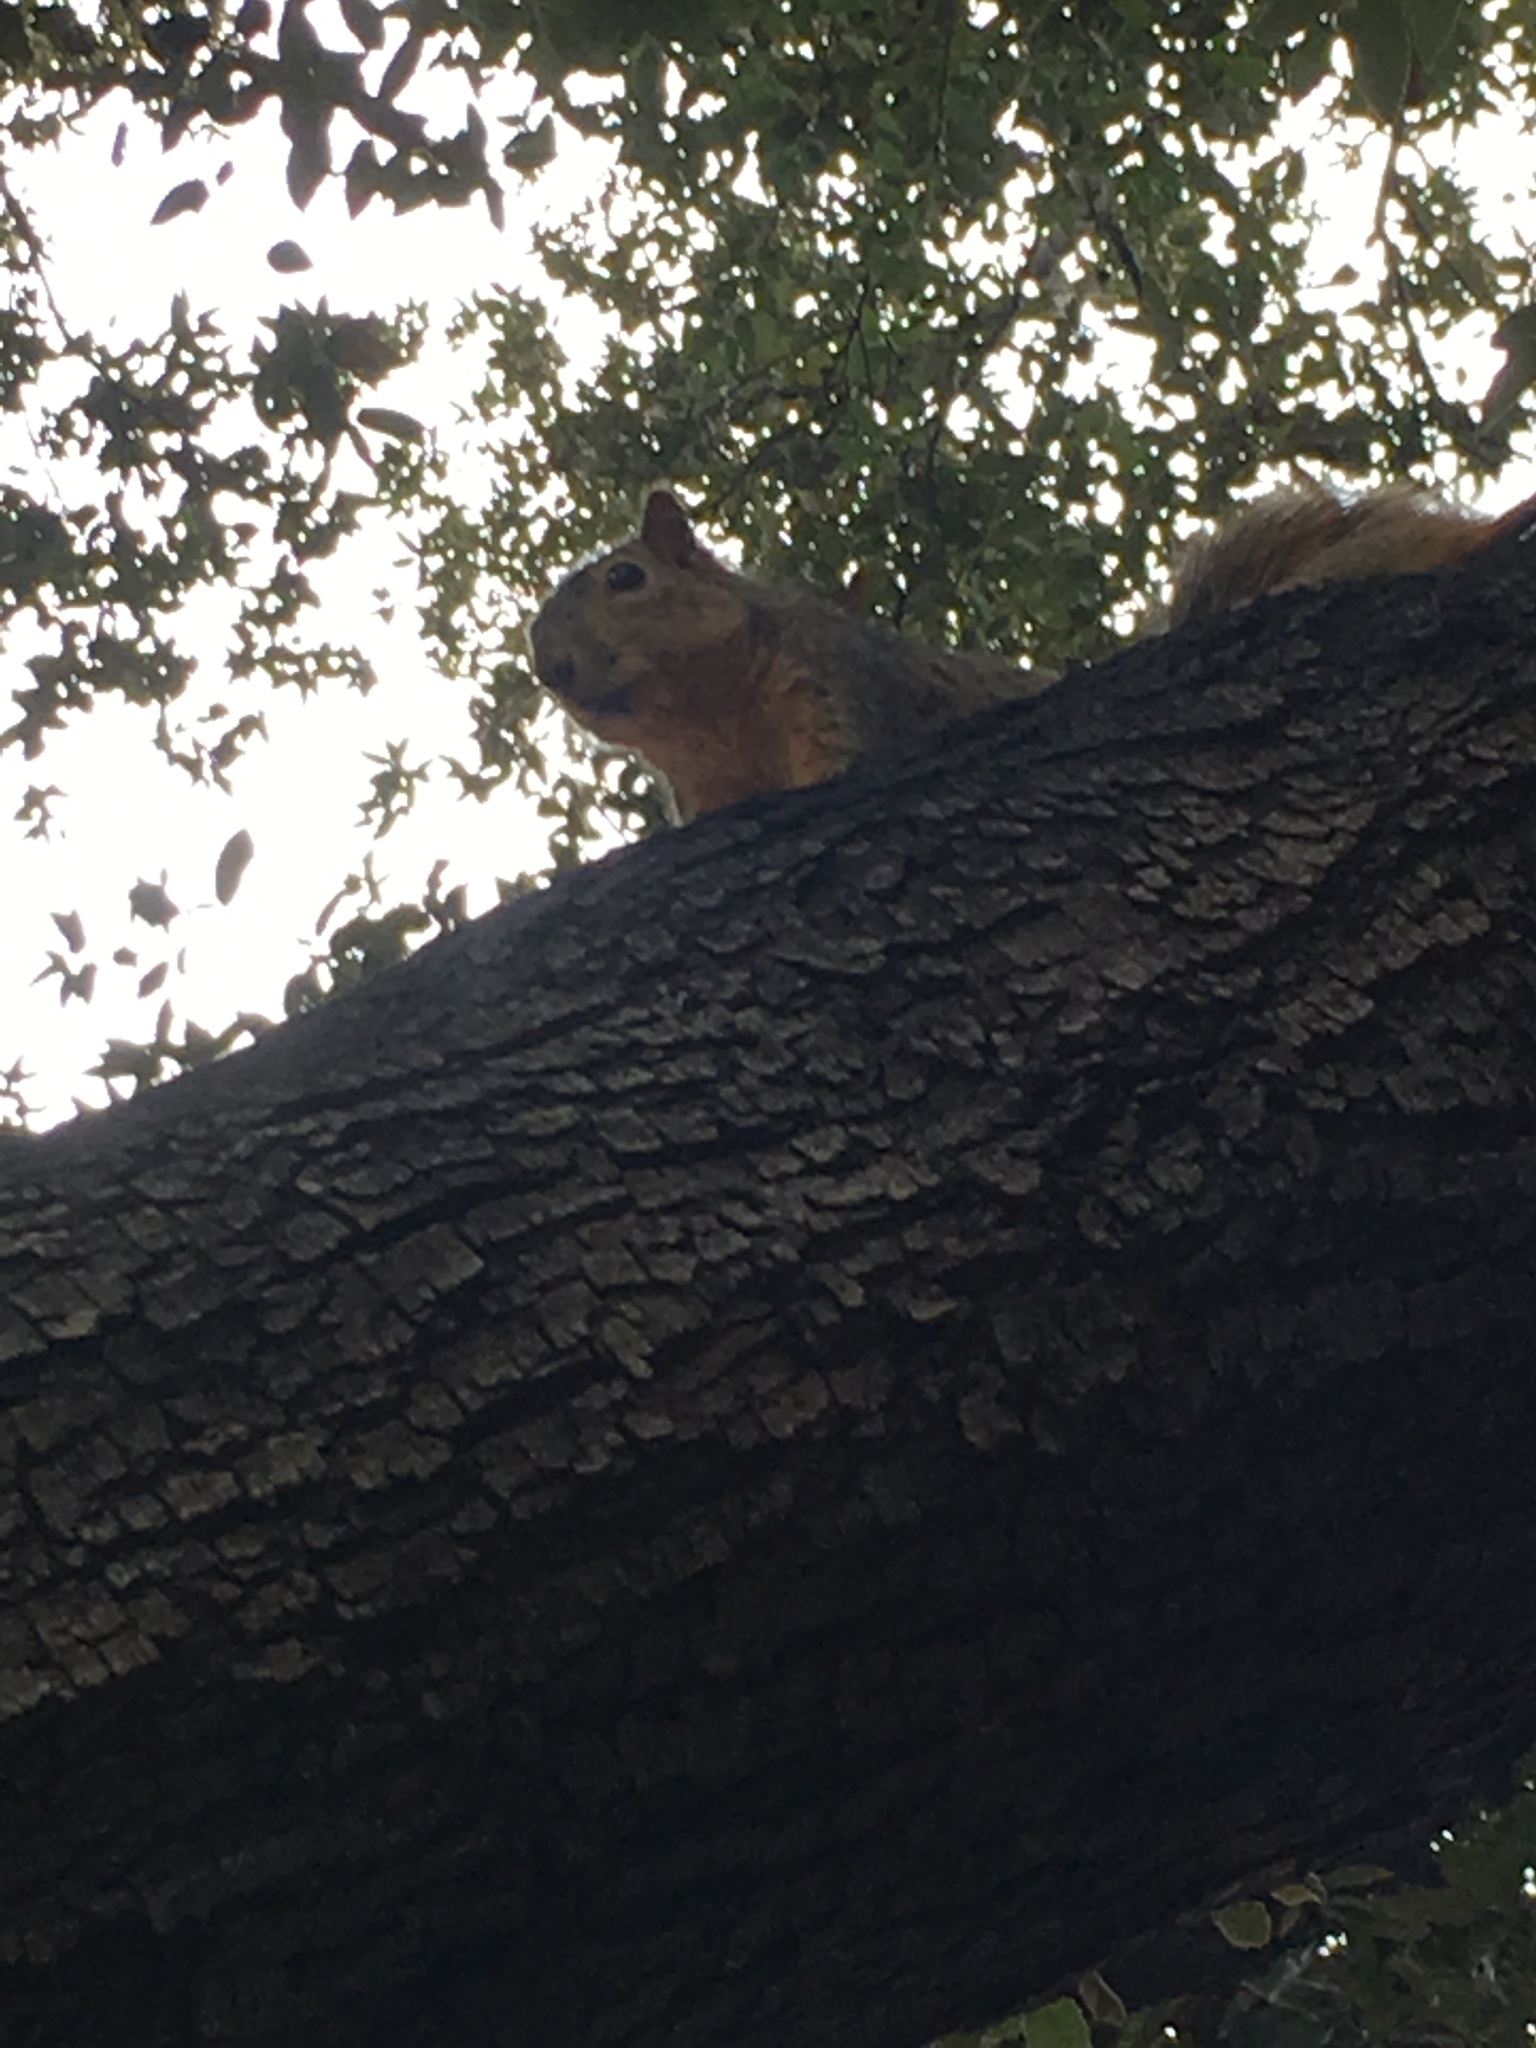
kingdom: Animalia
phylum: Chordata
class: Mammalia
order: Rodentia
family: Sciuridae
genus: Sciurus
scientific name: Sciurus niger
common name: Fox squirrel
